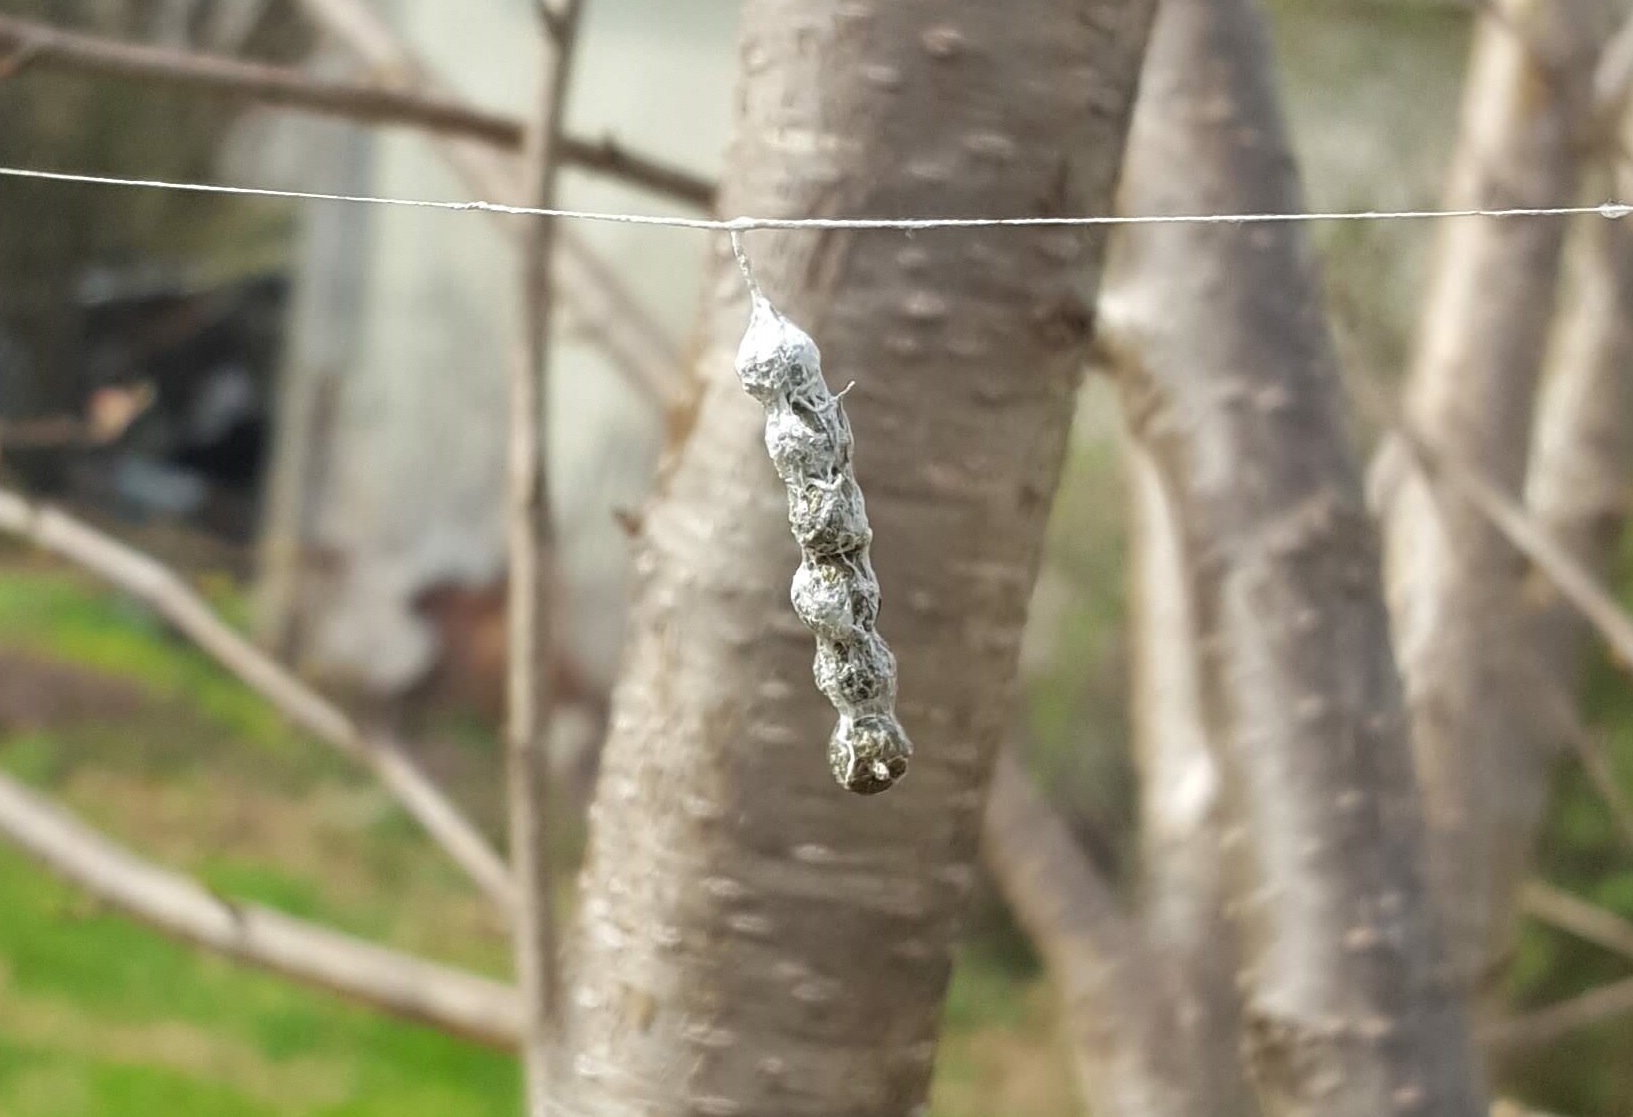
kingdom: Animalia
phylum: Arthropoda
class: Arachnida
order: Araneae
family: Araneidae
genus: Mecynogea
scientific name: Mecynogea lemniscata
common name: Orb weavers
